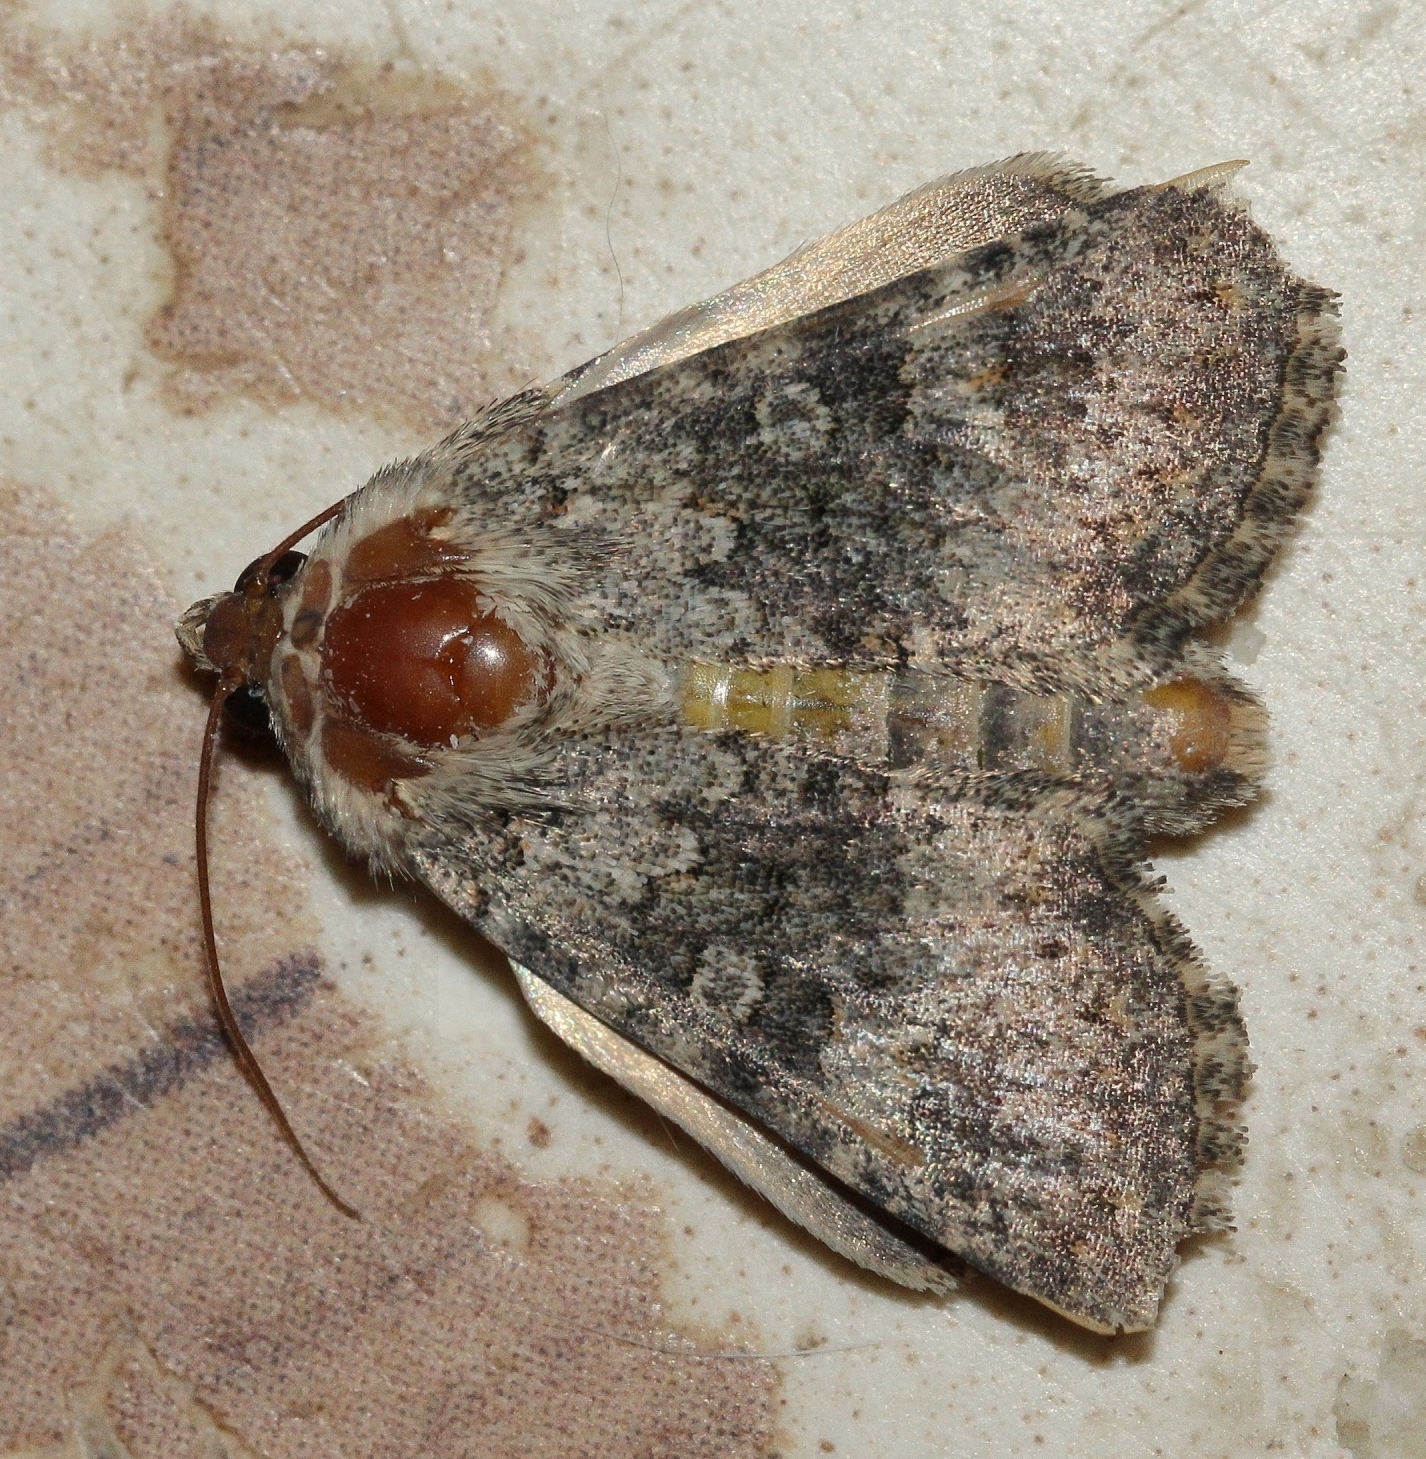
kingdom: Animalia
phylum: Arthropoda
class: Insecta
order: Lepidoptera
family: Noctuidae
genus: Hecatera
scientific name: Hecatera dysodea
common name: Small ranunculus
